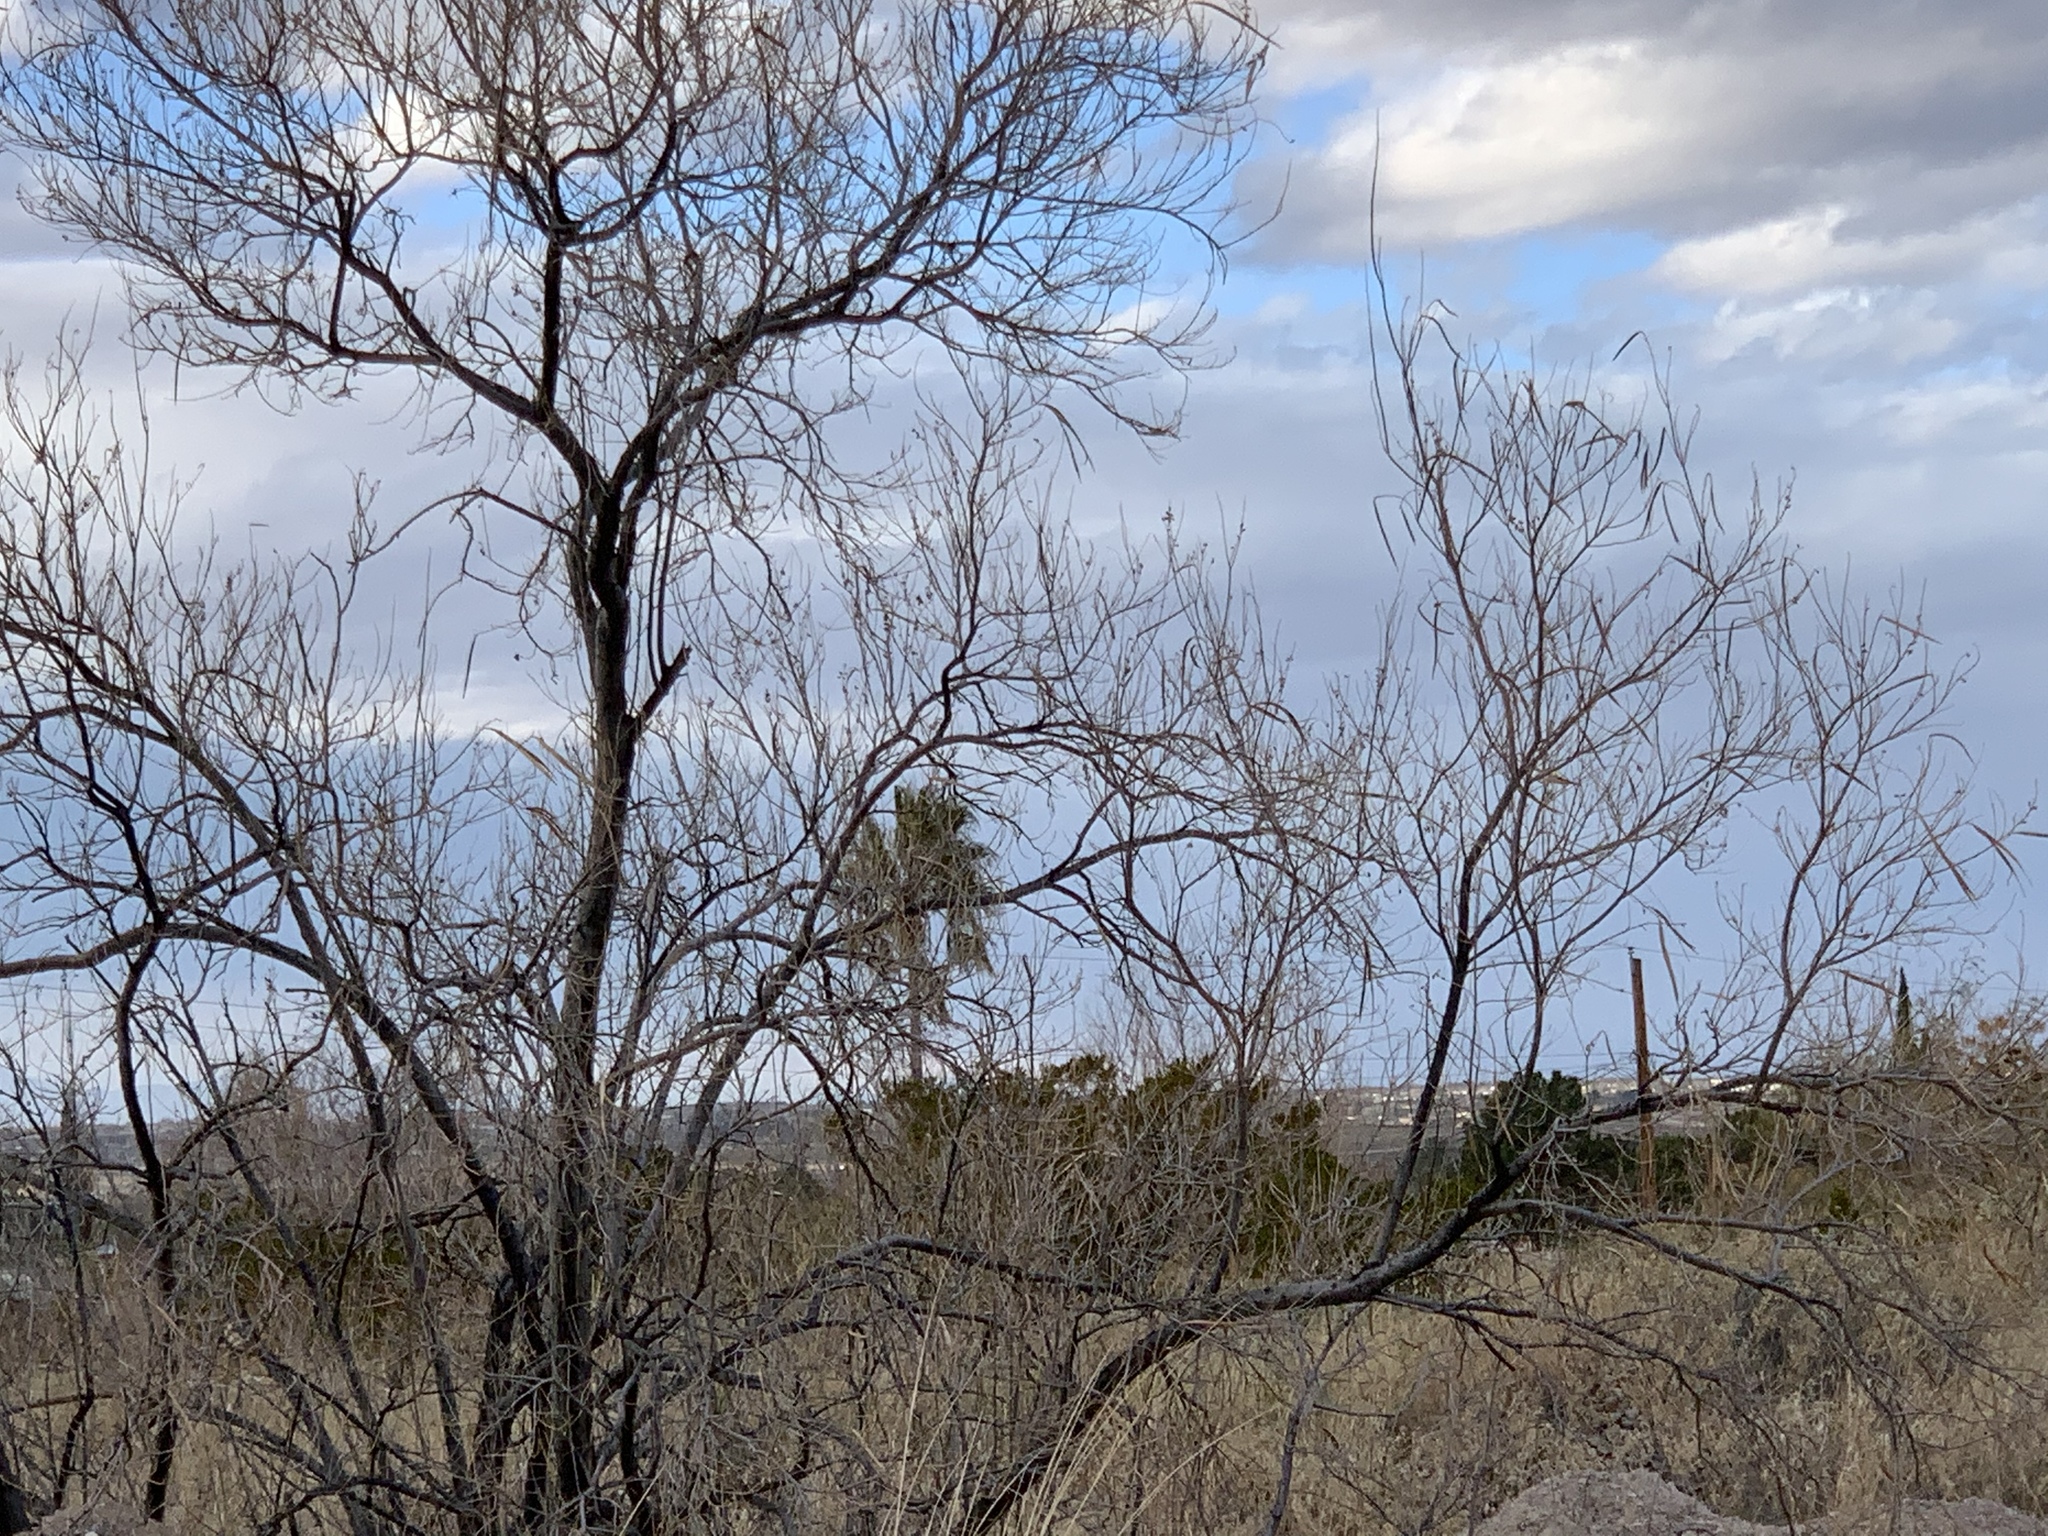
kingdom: Plantae
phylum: Tracheophyta
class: Magnoliopsida
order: Lamiales
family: Bignoniaceae
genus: Chilopsis
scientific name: Chilopsis linearis
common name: Desert-willow
